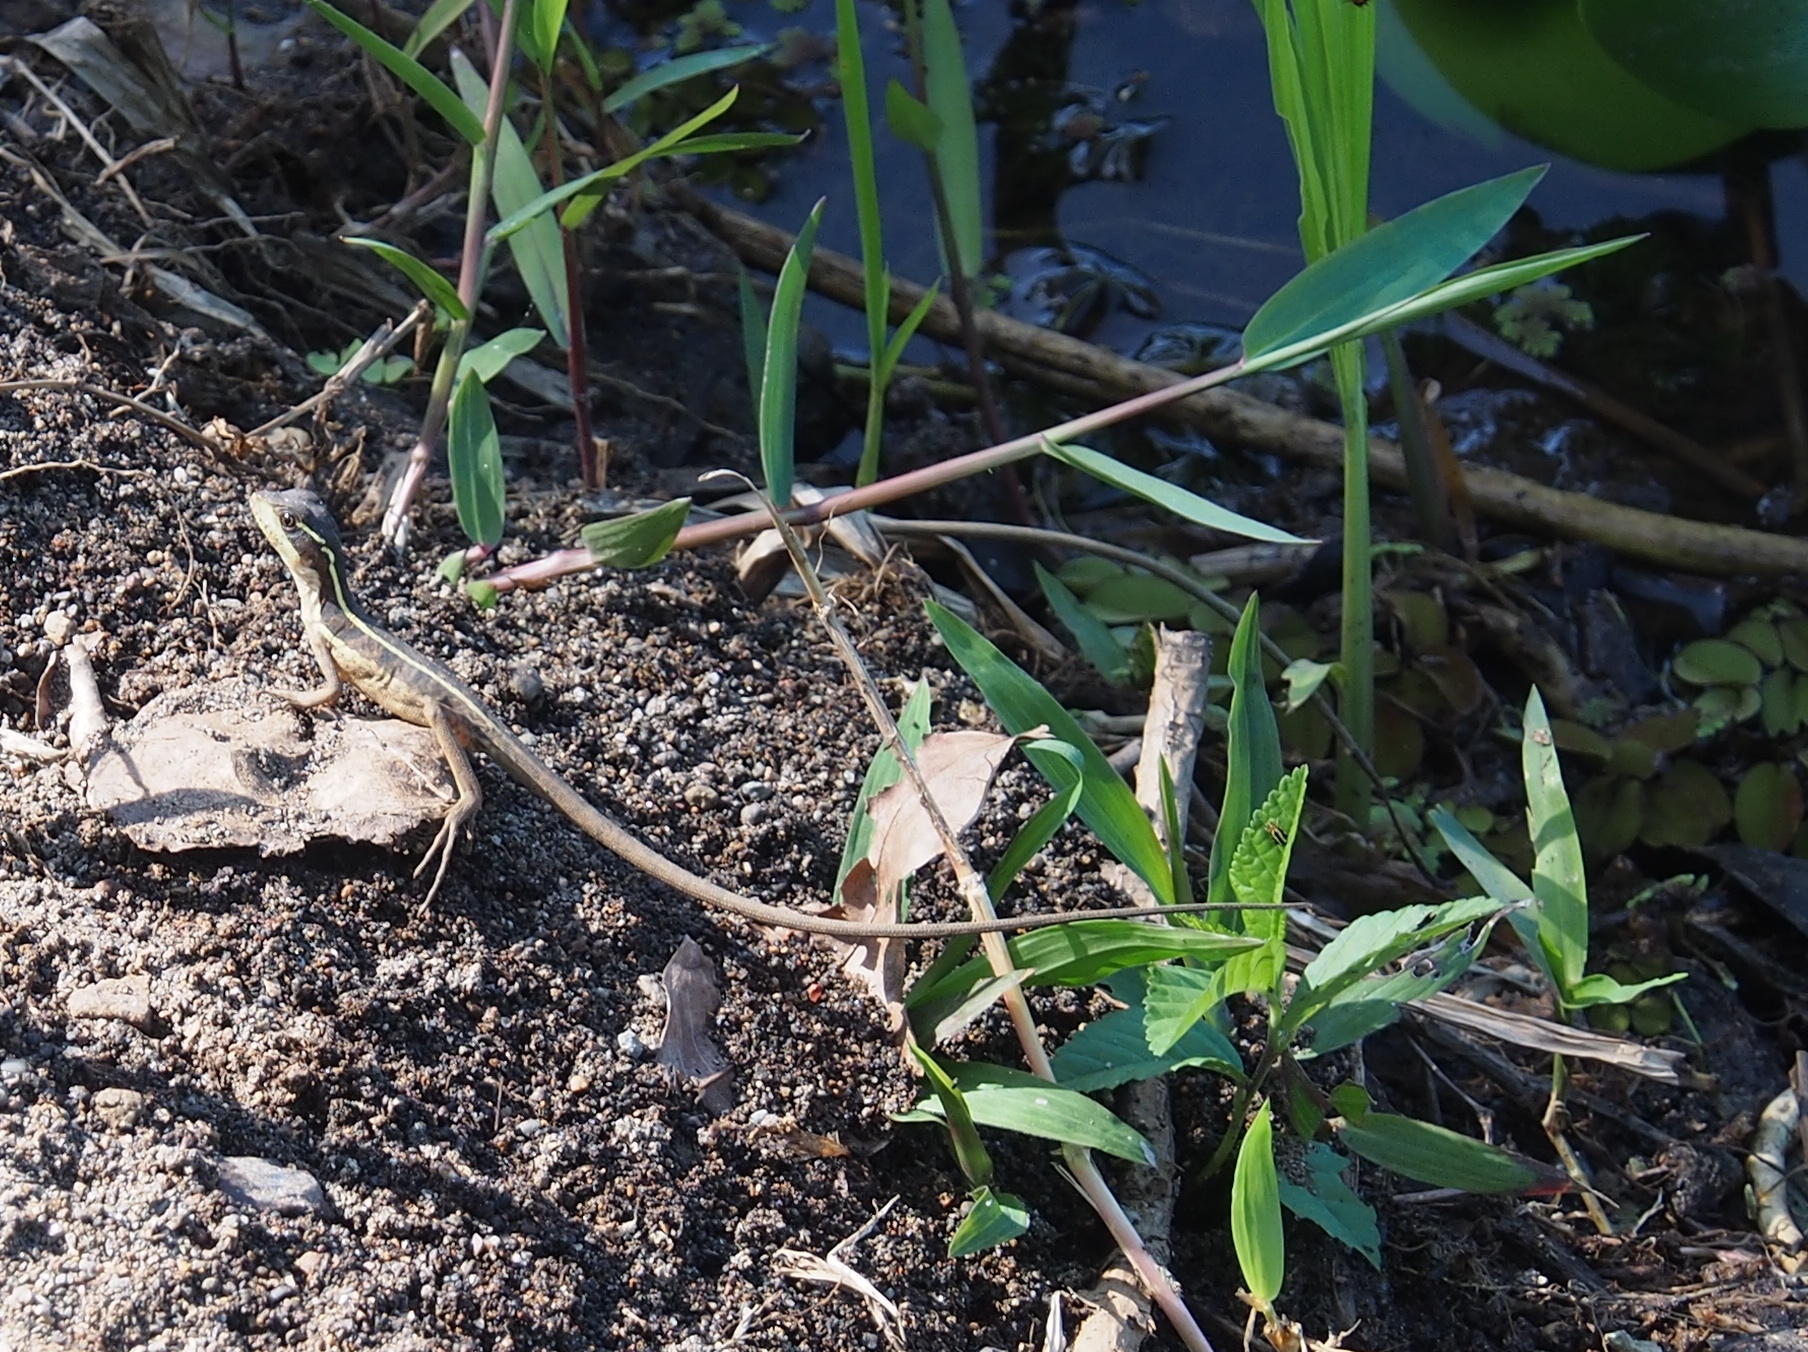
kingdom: Animalia
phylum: Chordata
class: Squamata
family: Corytophanidae
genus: Basiliscus
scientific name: Basiliscus vittatus
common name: Brown basilisk
